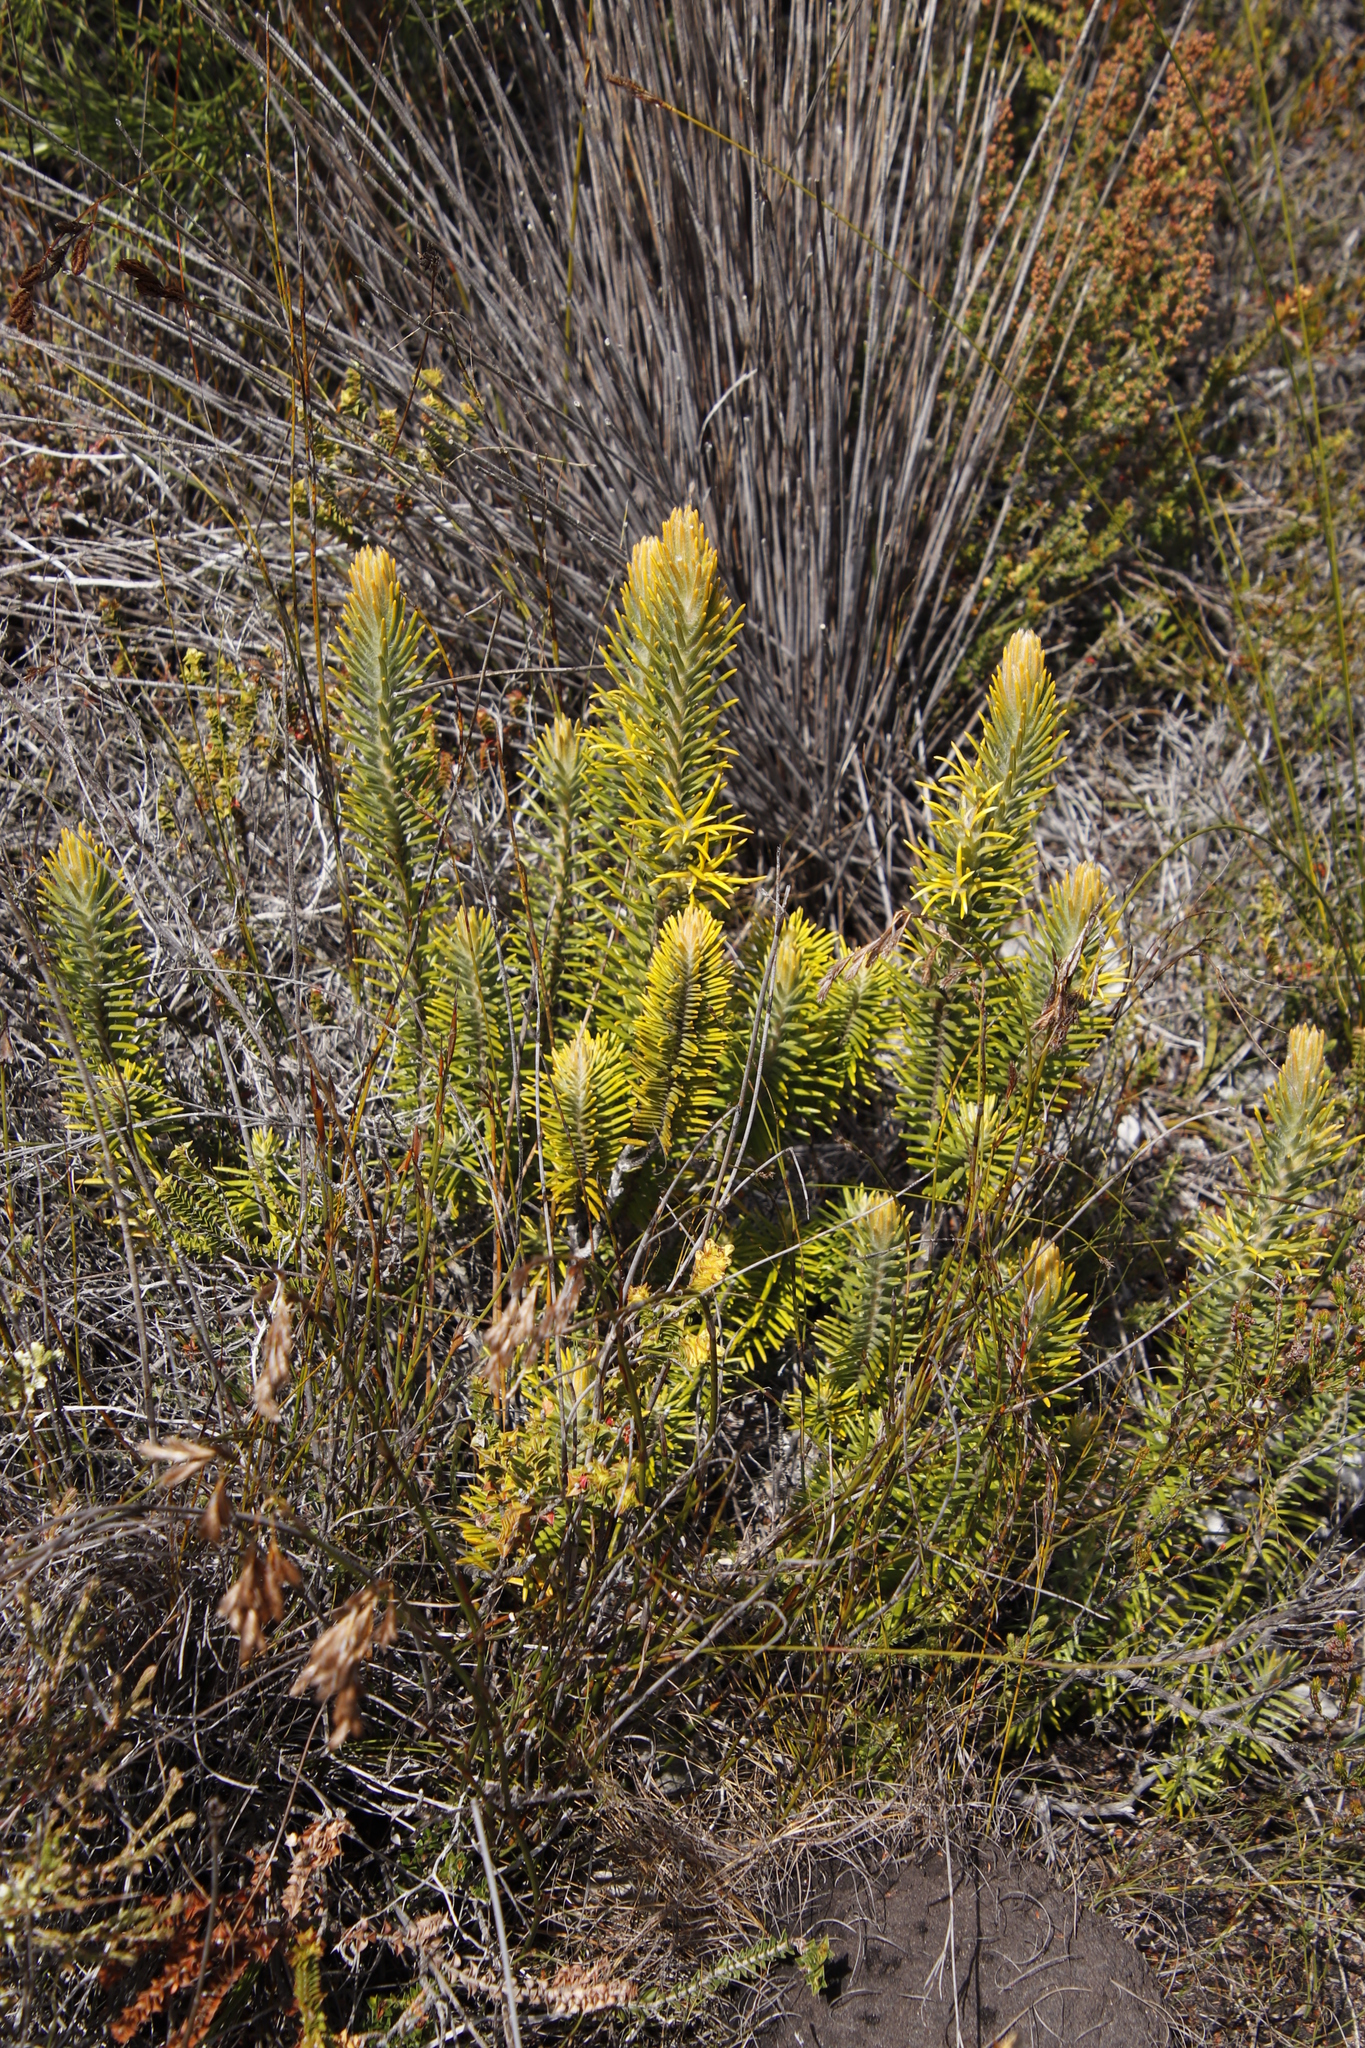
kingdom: Plantae
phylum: Tracheophyta
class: Magnoliopsida
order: Lamiales
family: Stilbaceae
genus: Retzia
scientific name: Retzia capensis
